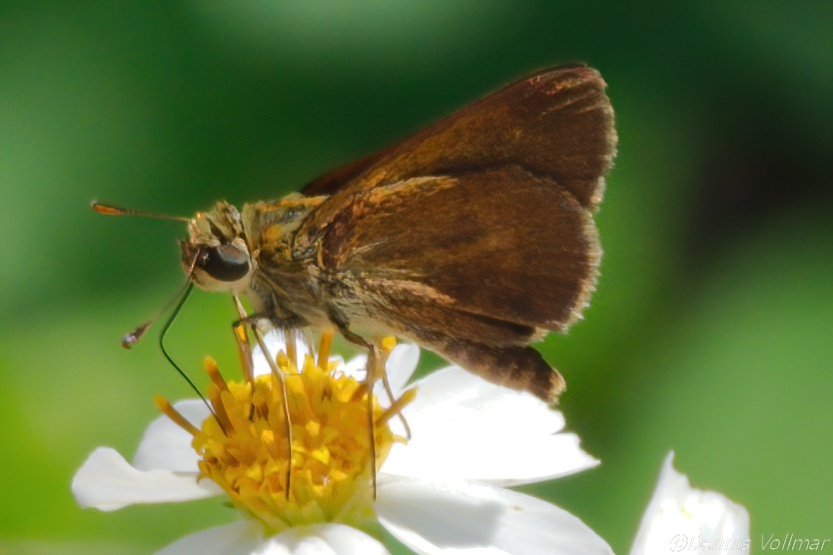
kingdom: Animalia
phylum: Arthropoda
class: Insecta
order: Lepidoptera
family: Hesperiidae
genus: Polites
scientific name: Polites otho
